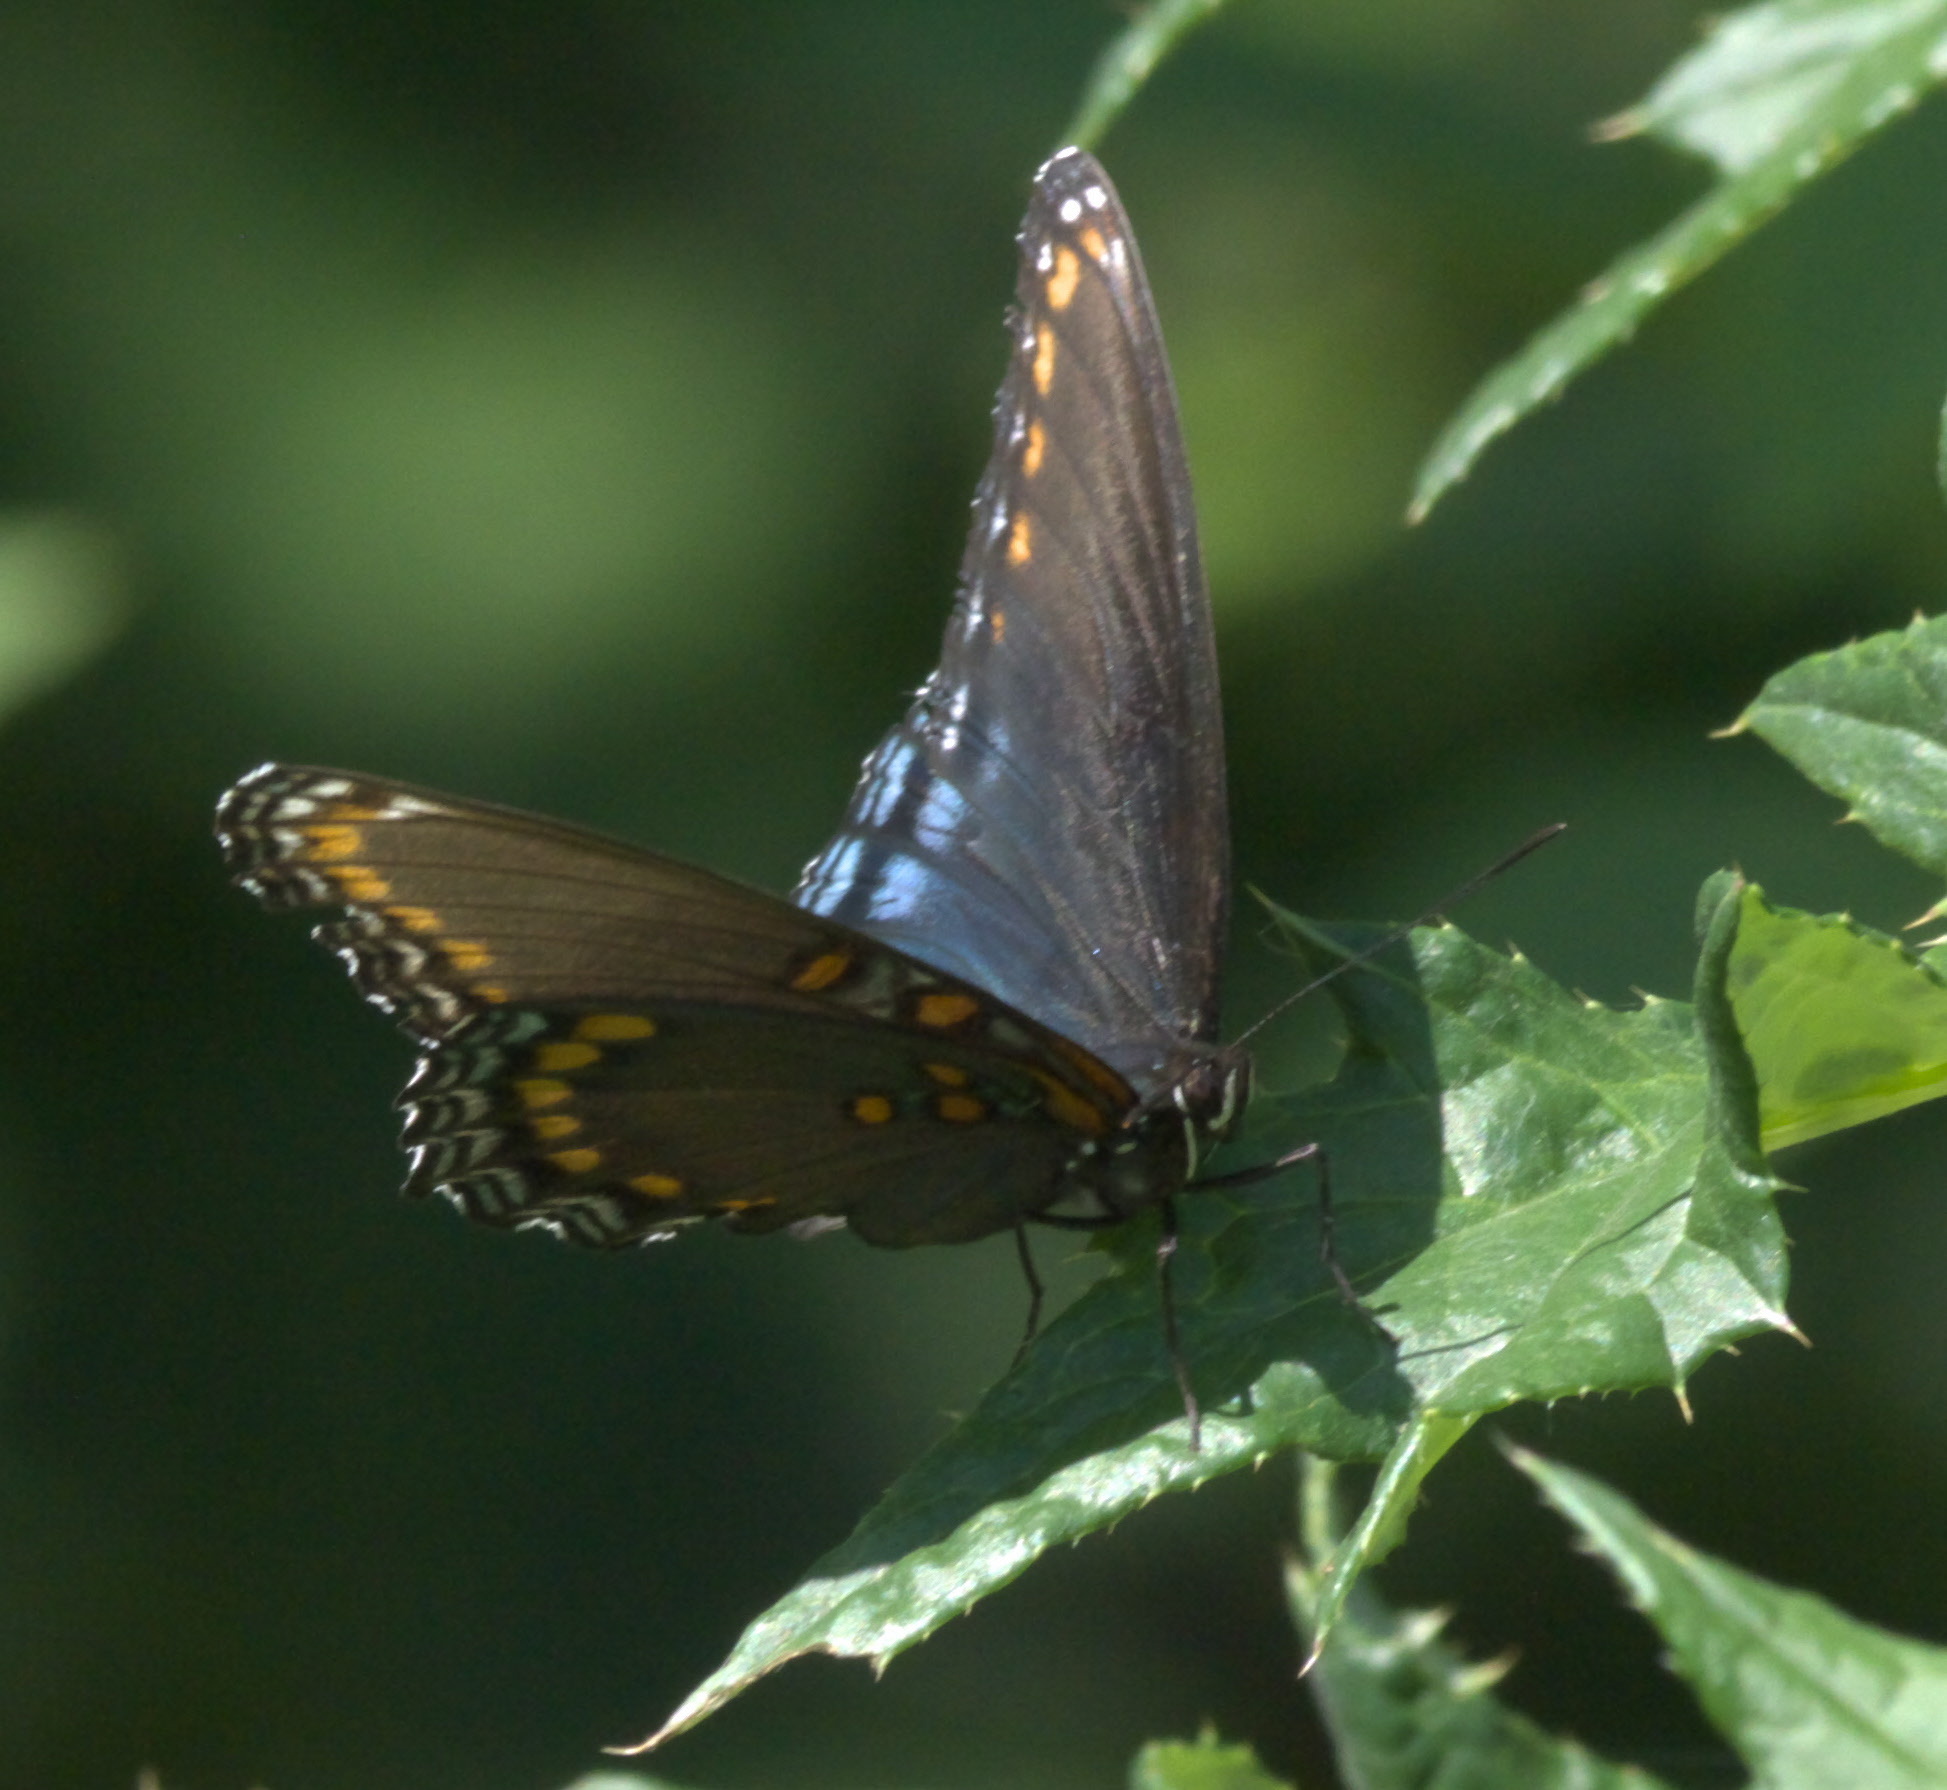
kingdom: Animalia
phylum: Arthropoda
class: Insecta
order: Lepidoptera
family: Nymphalidae
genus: Limenitis
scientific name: Limenitis astyanax
